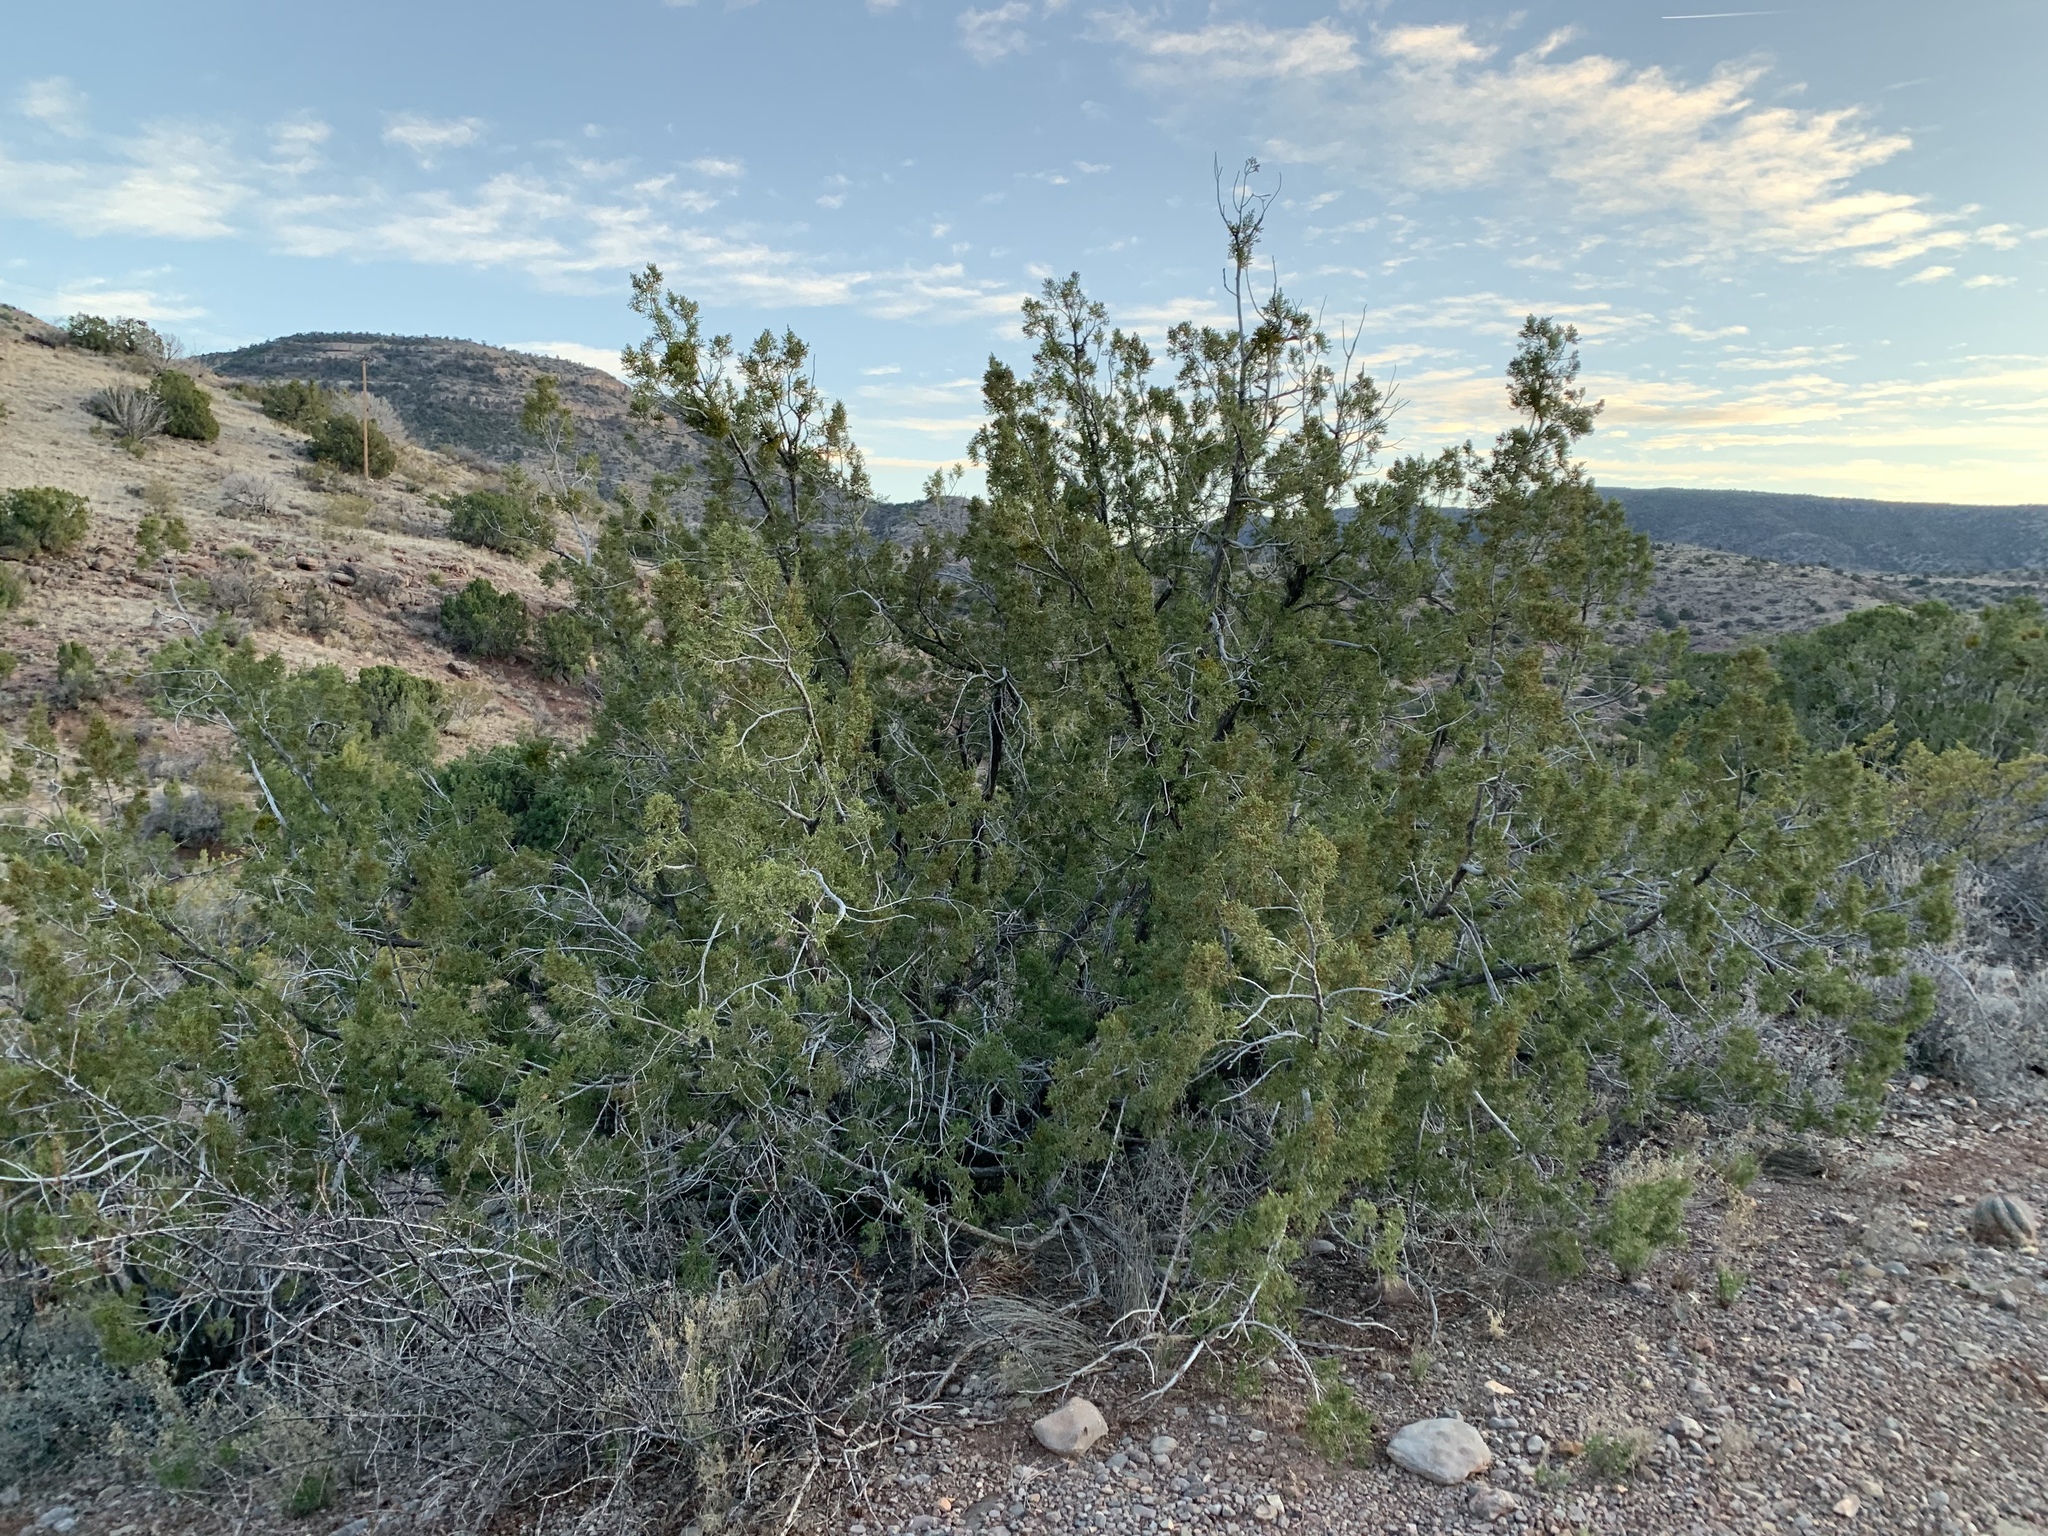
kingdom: Plantae
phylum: Tracheophyta
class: Pinopsida
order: Pinales
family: Cupressaceae
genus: Juniperus
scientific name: Juniperus monosperma
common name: One-seed juniper
